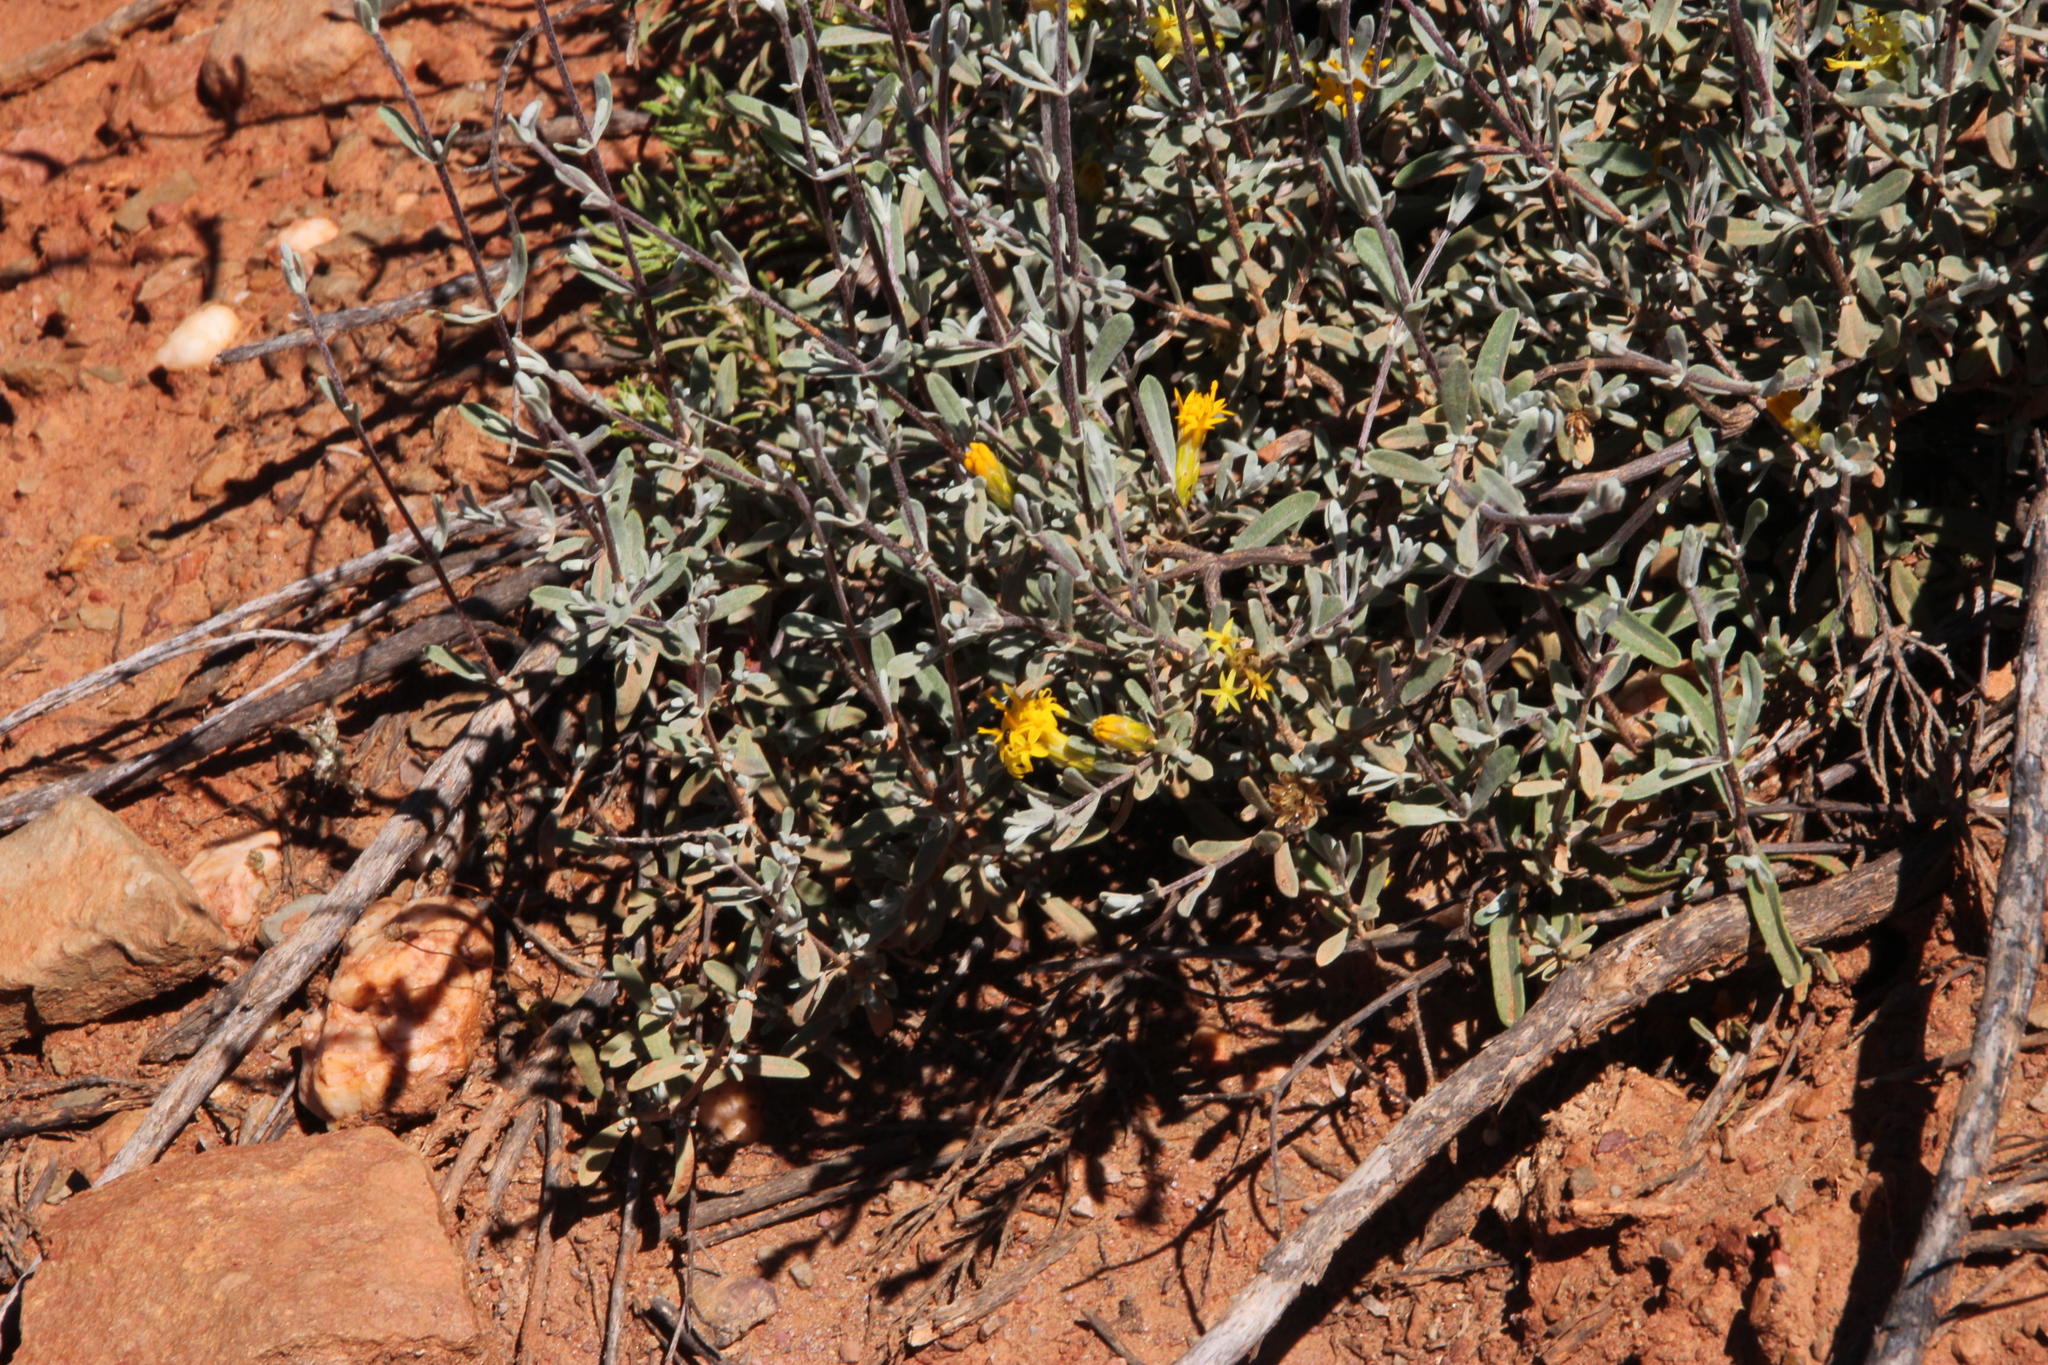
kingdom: Plantae
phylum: Tracheophyta
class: Magnoliopsida
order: Asterales
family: Asteraceae
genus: Pteronia
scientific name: Pteronia incana
